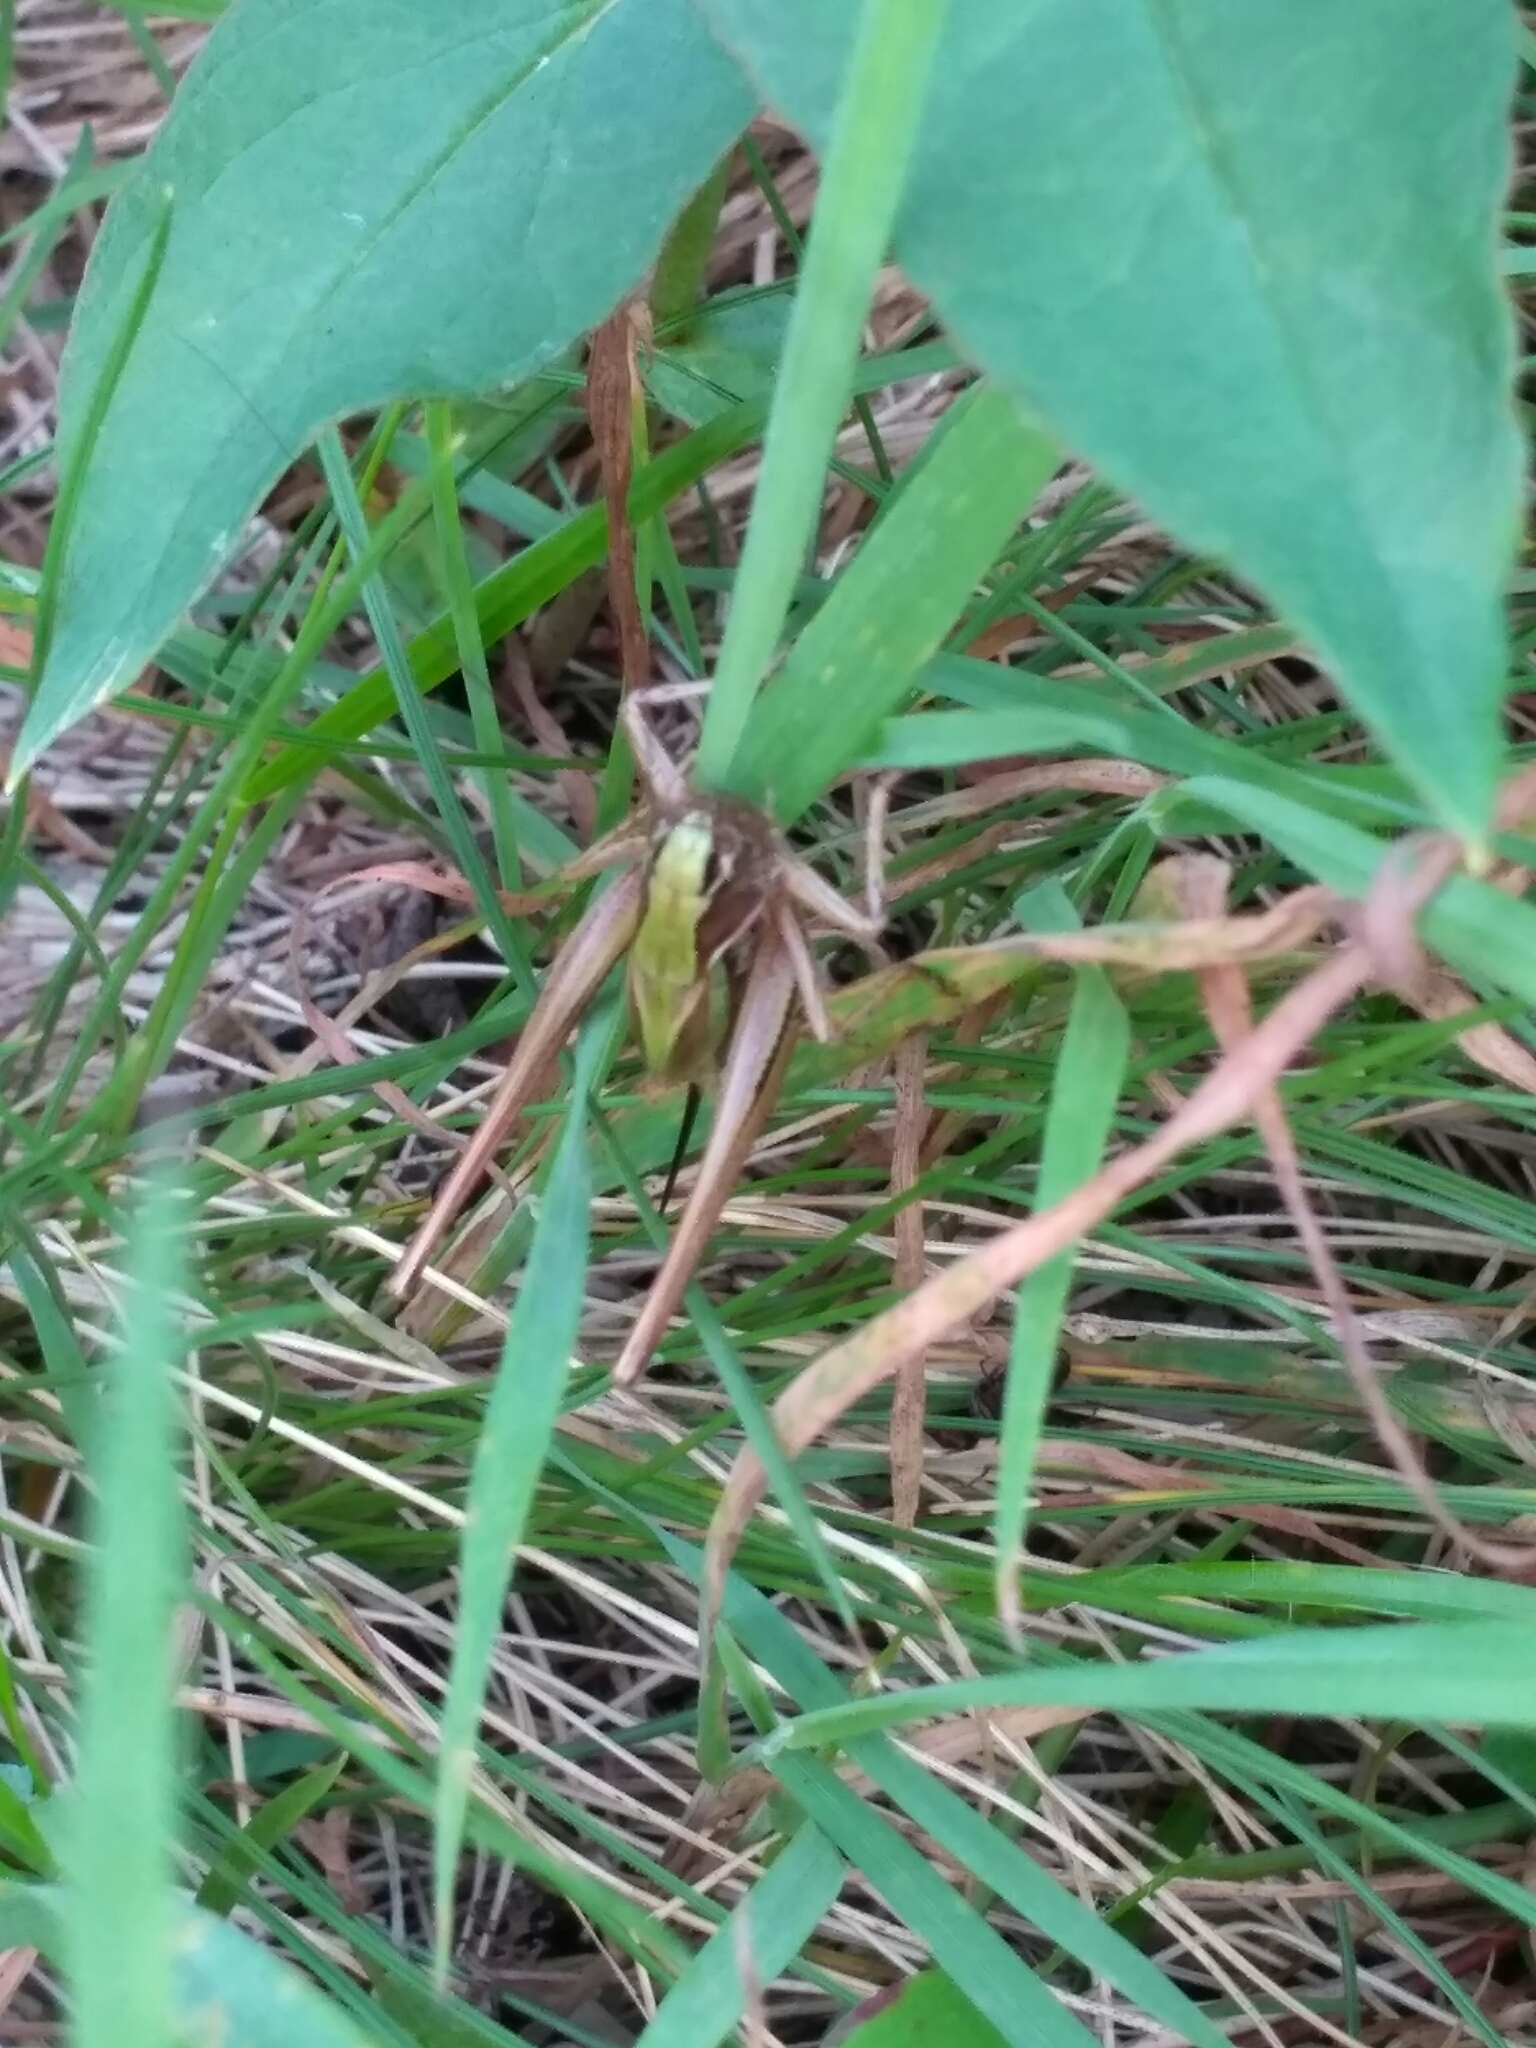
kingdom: Animalia
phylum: Arthropoda
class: Insecta
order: Orthoptera
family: Tettigoniidae
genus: Metrioptera
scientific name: Metrioptera brachyptera
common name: Bog bush-cricket
